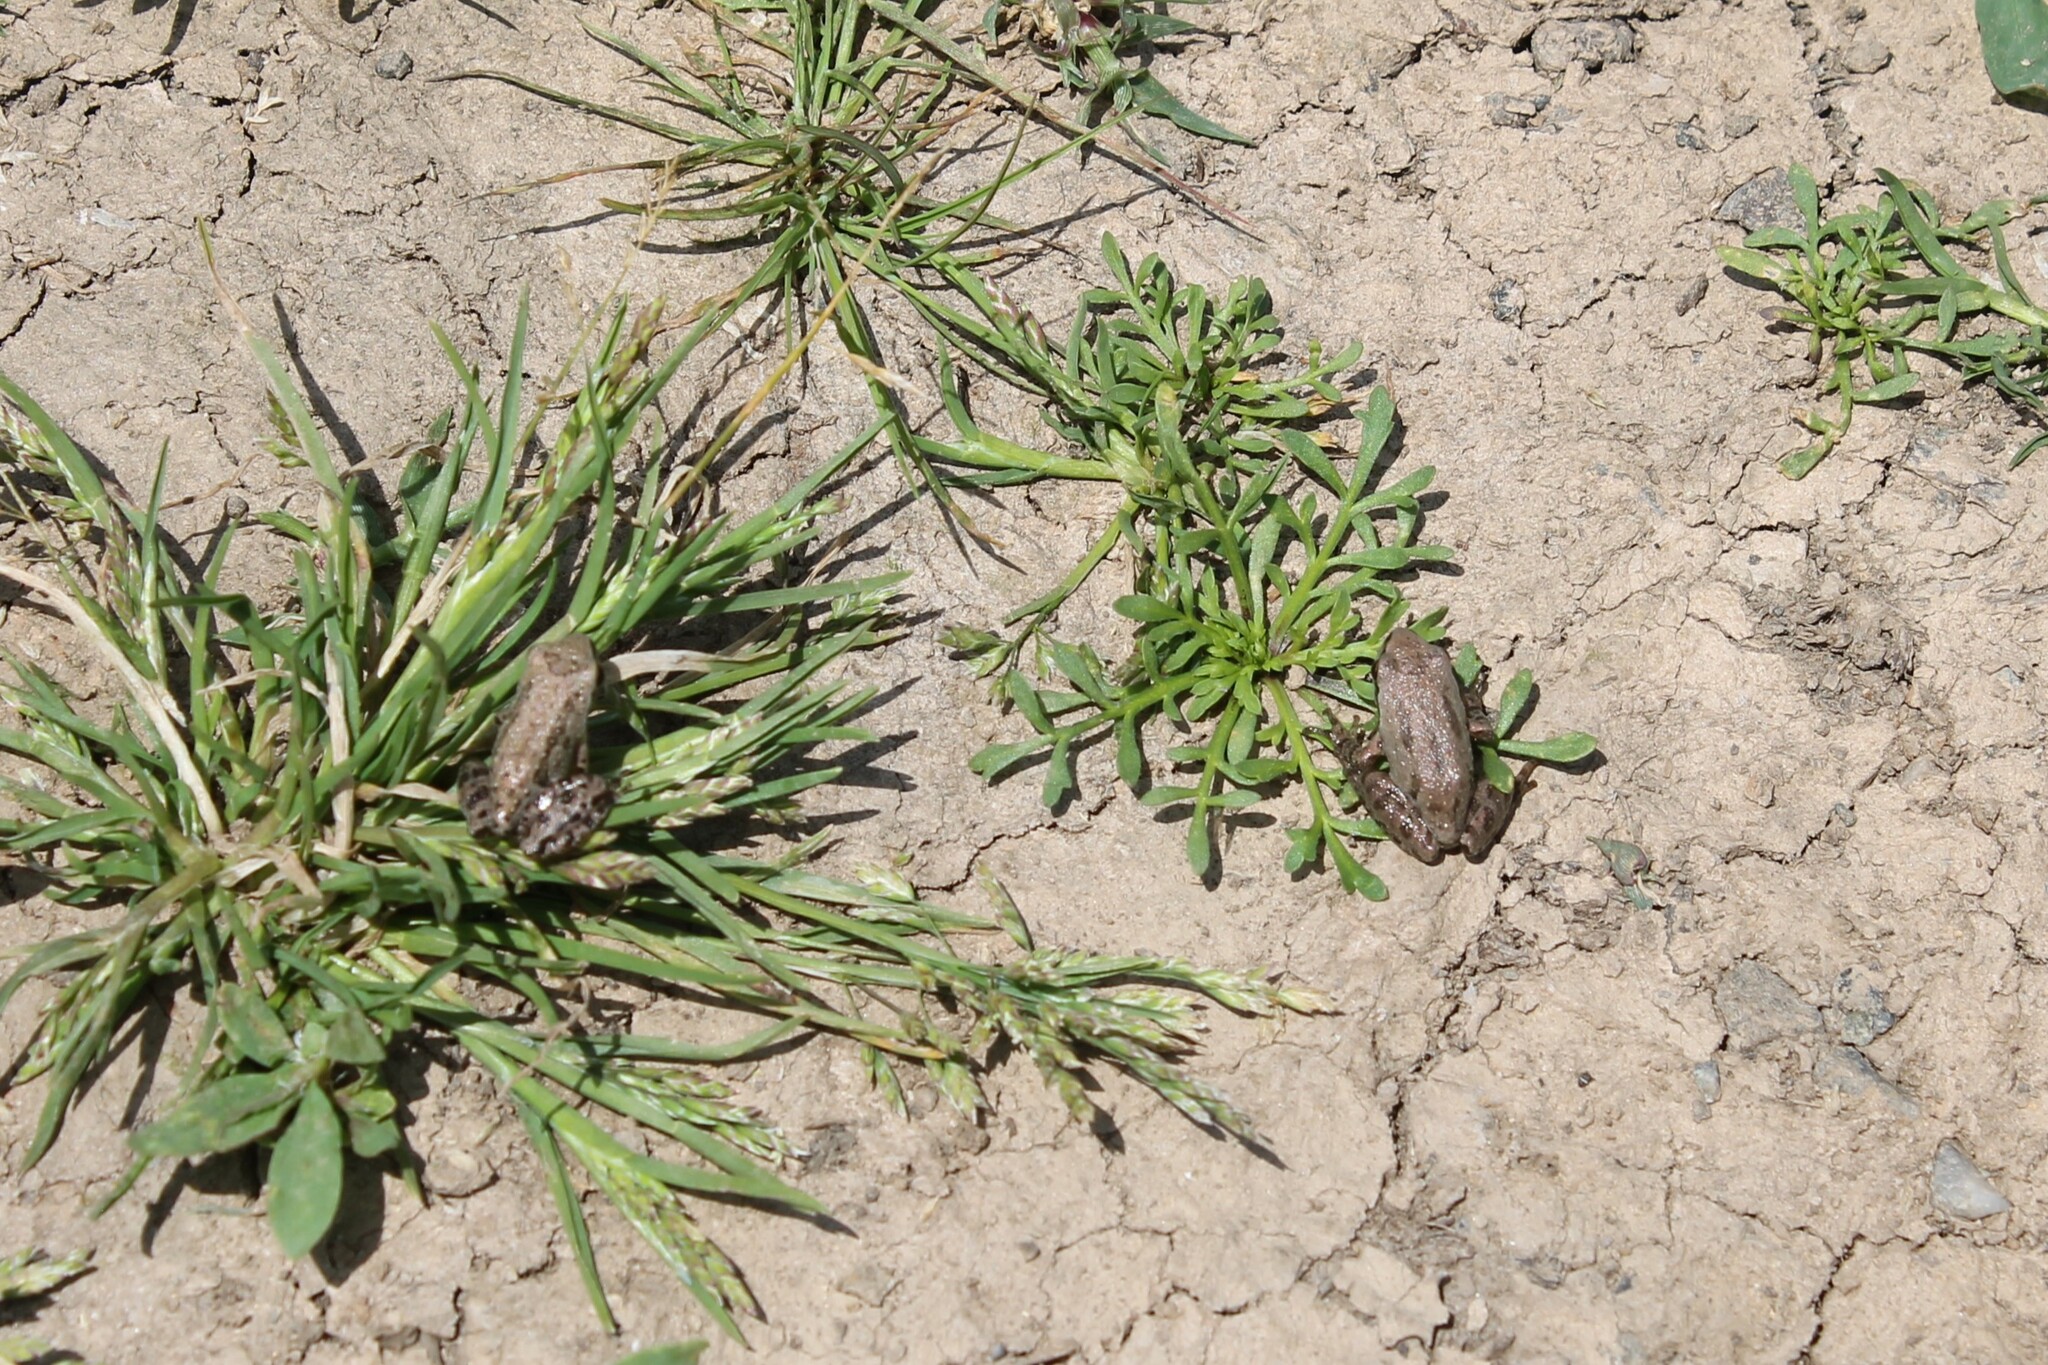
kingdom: Animalia
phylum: Chordata
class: Amphibia
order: Anura
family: Hylidae
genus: Pseudacris
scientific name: Pseudacris regilla
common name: Pacific chorus frog
